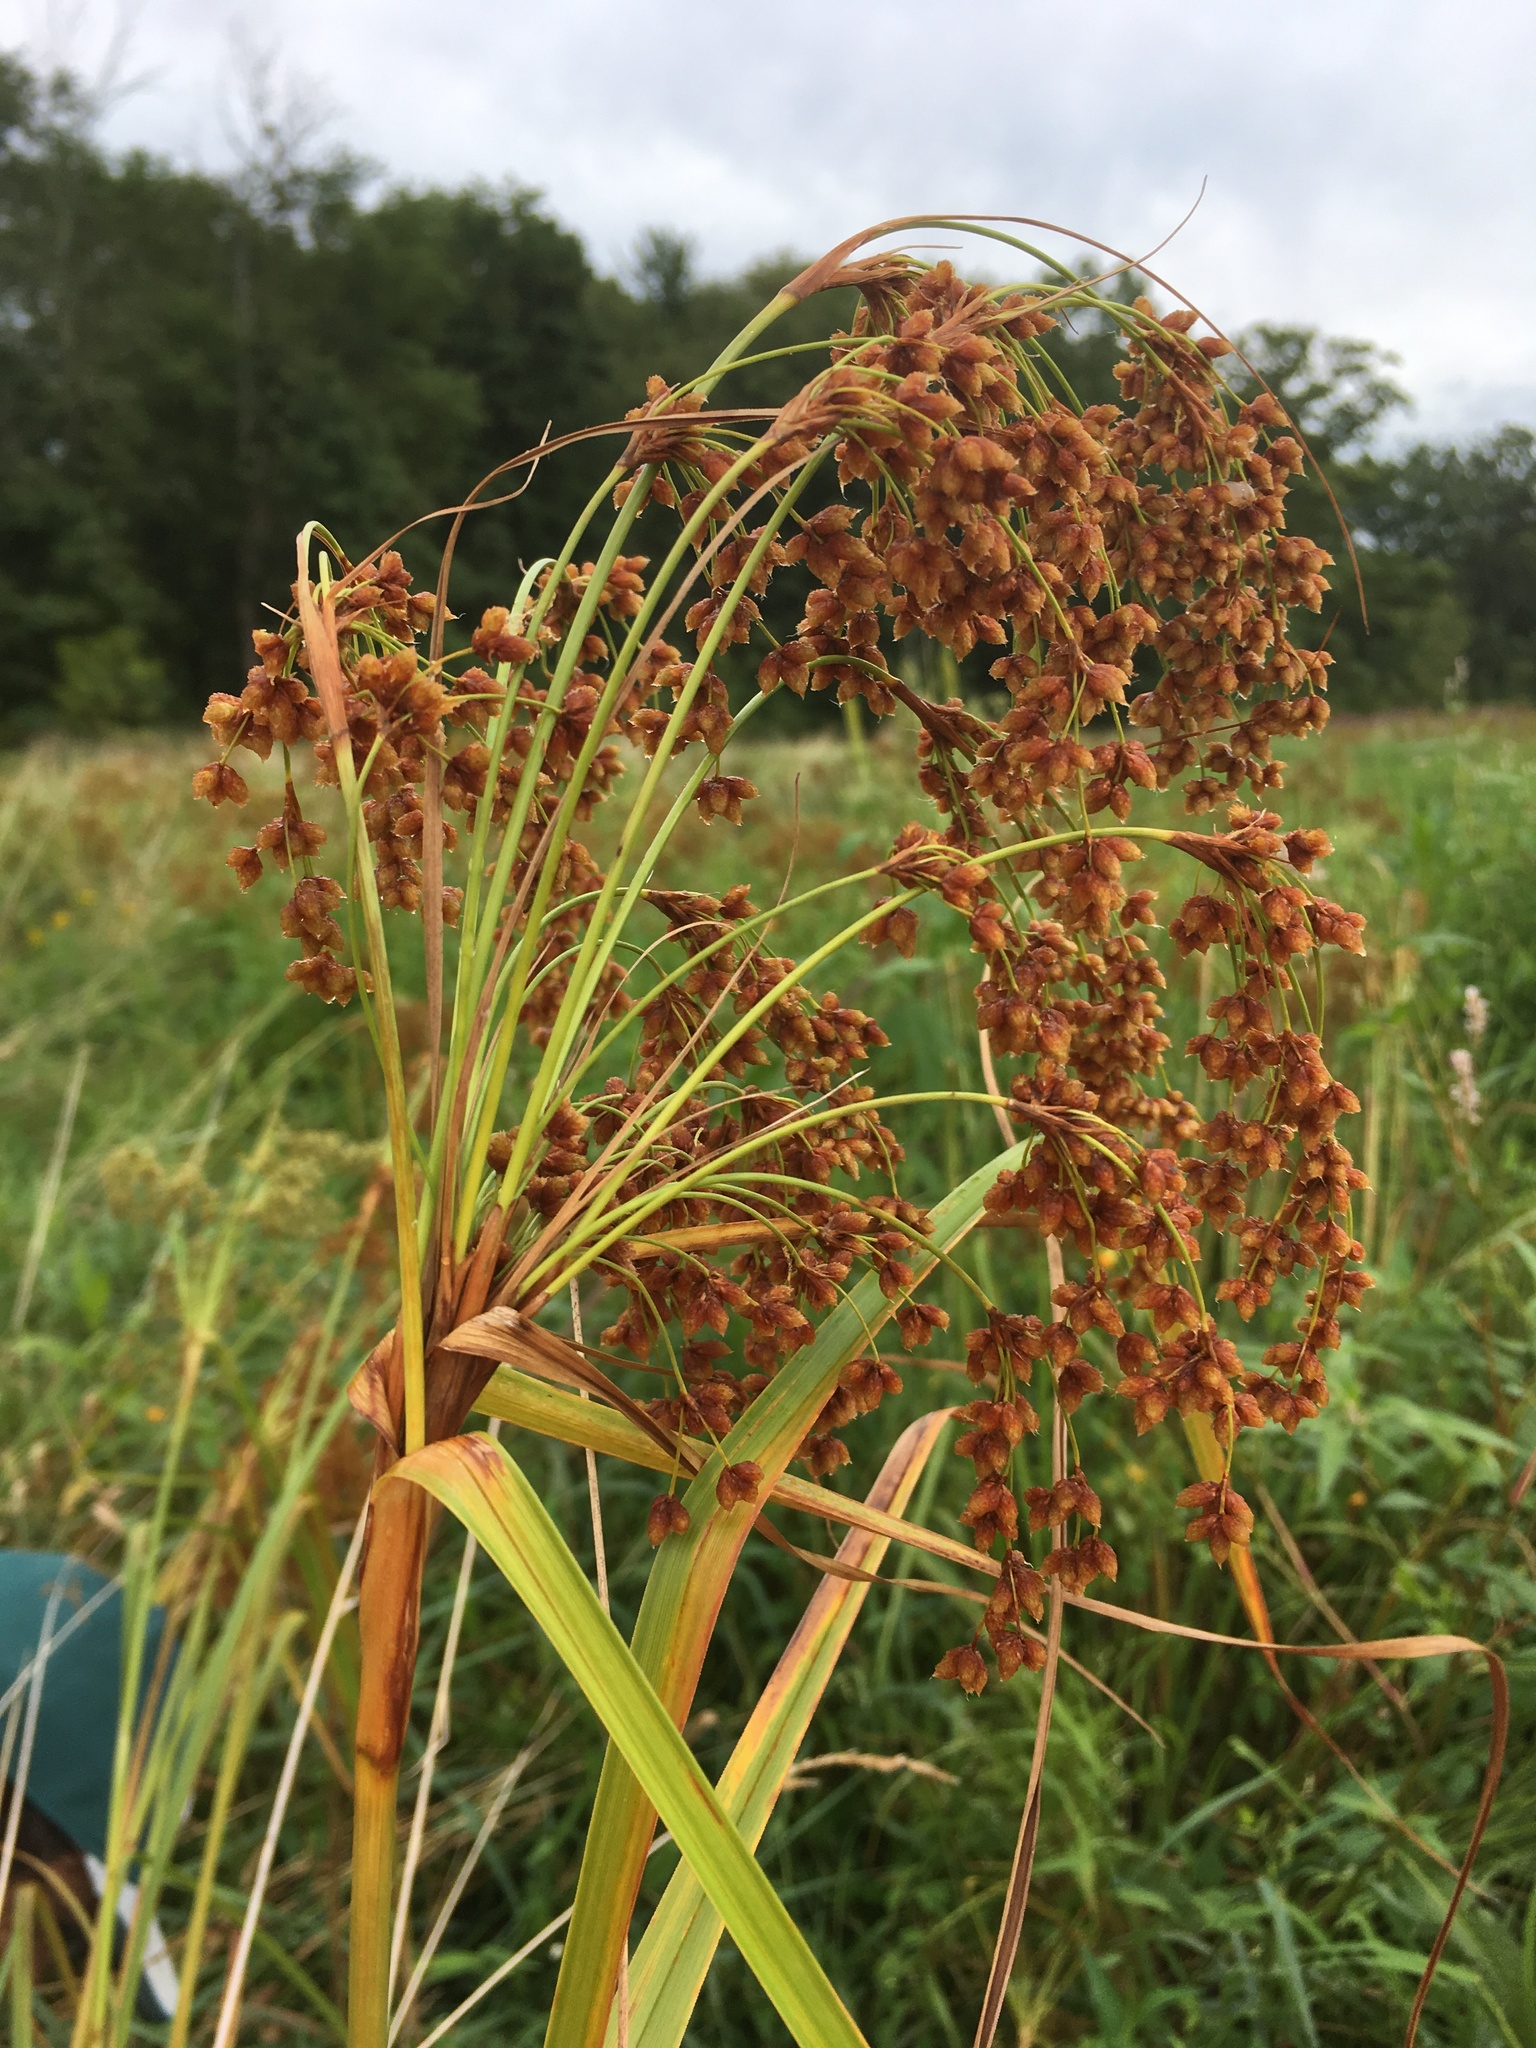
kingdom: Plantae
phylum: Tracheophyta
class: Liliopsida
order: Poales
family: Cyperaceae
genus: Scirpus
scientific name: Scirpus cyperinus
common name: Black-sheathed bulrush
